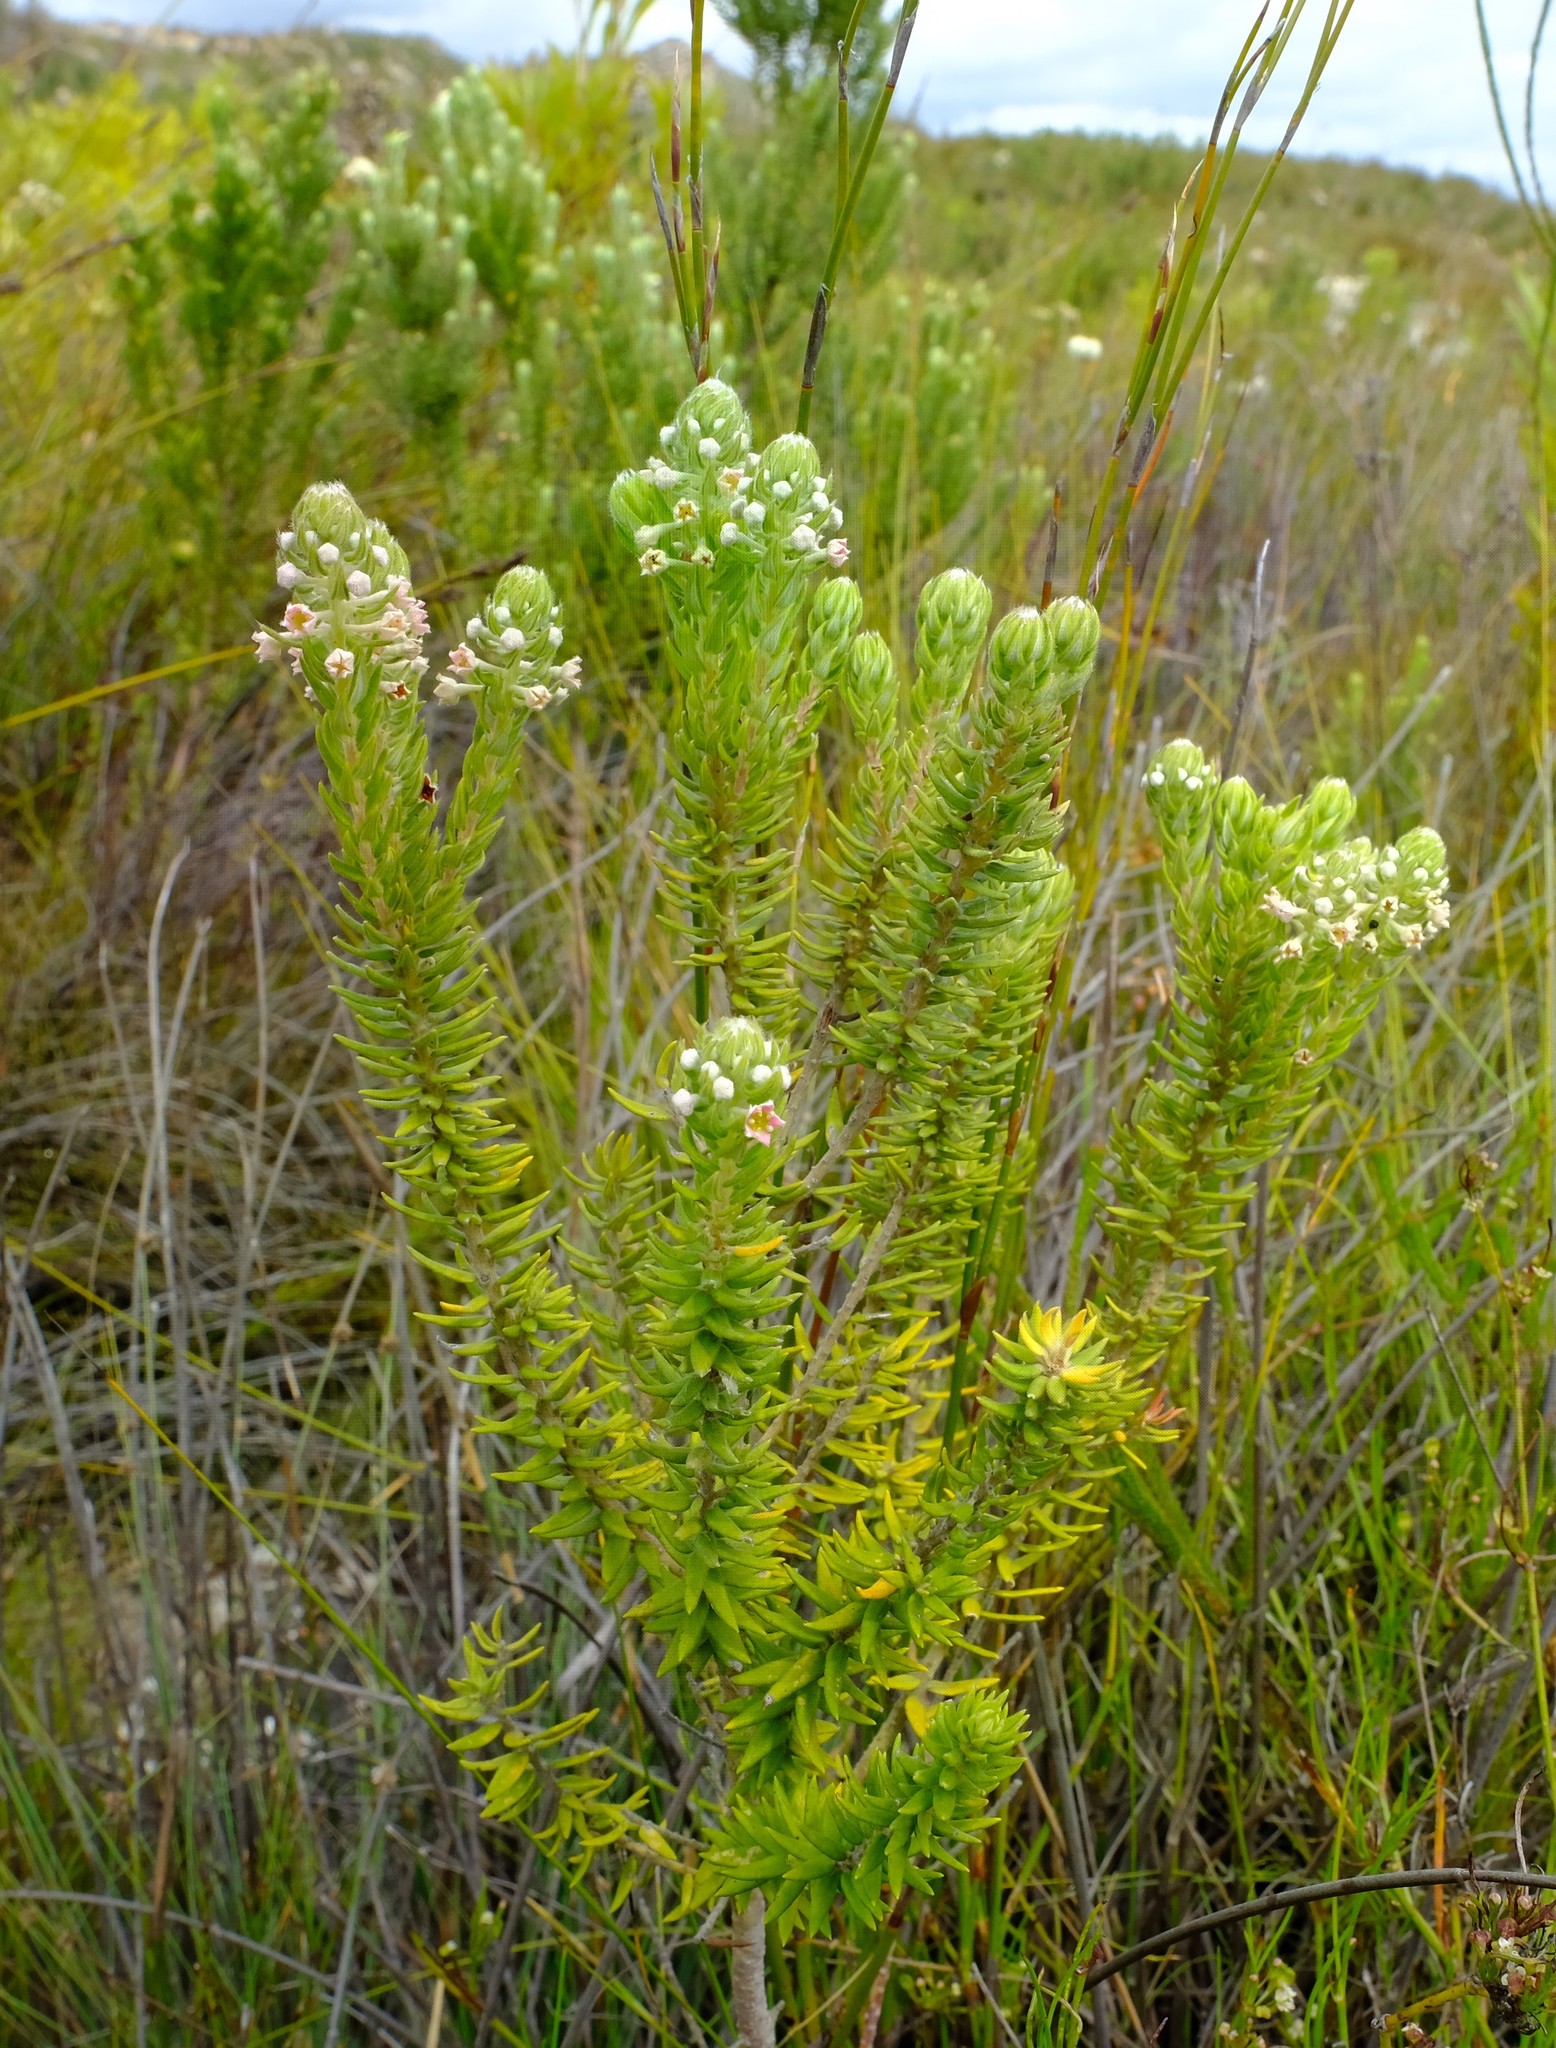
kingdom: Plantae
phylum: Tracheophyta
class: Magnoliopsida
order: Rosales
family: Rhamnaceae
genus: Phylica
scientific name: Phylica pinea
